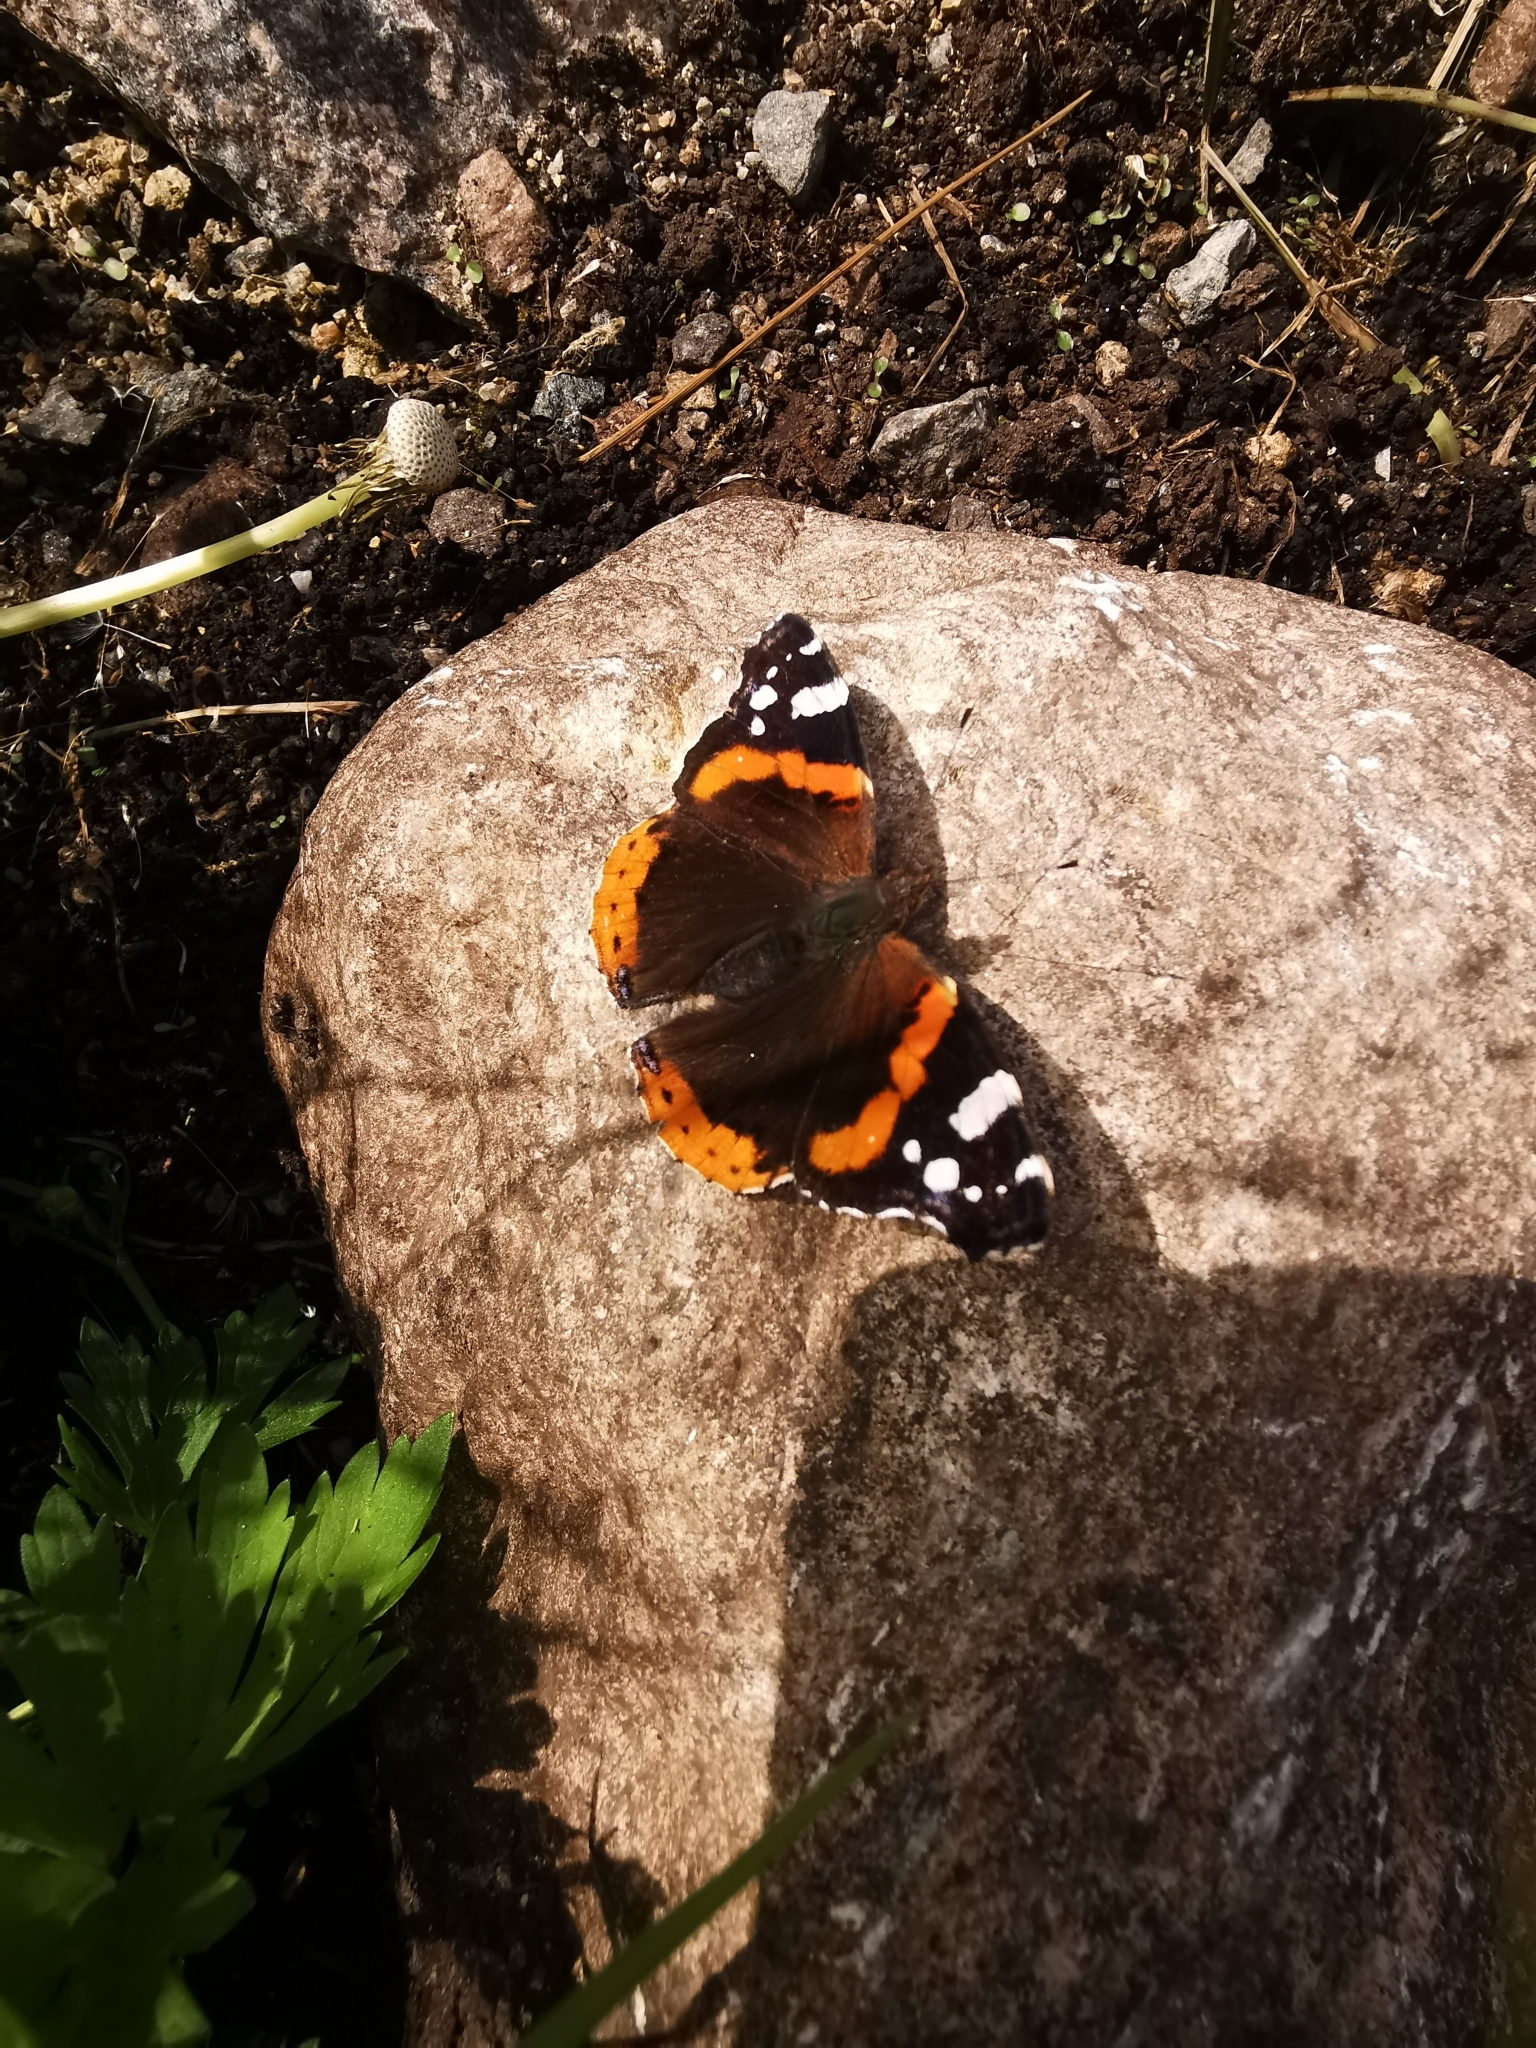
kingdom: Animalia
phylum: Arthropoda
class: Insecta
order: Lepidoptera
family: Nymphalidae
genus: Vanessa
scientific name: Vanessa atalanta
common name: Red admiral
